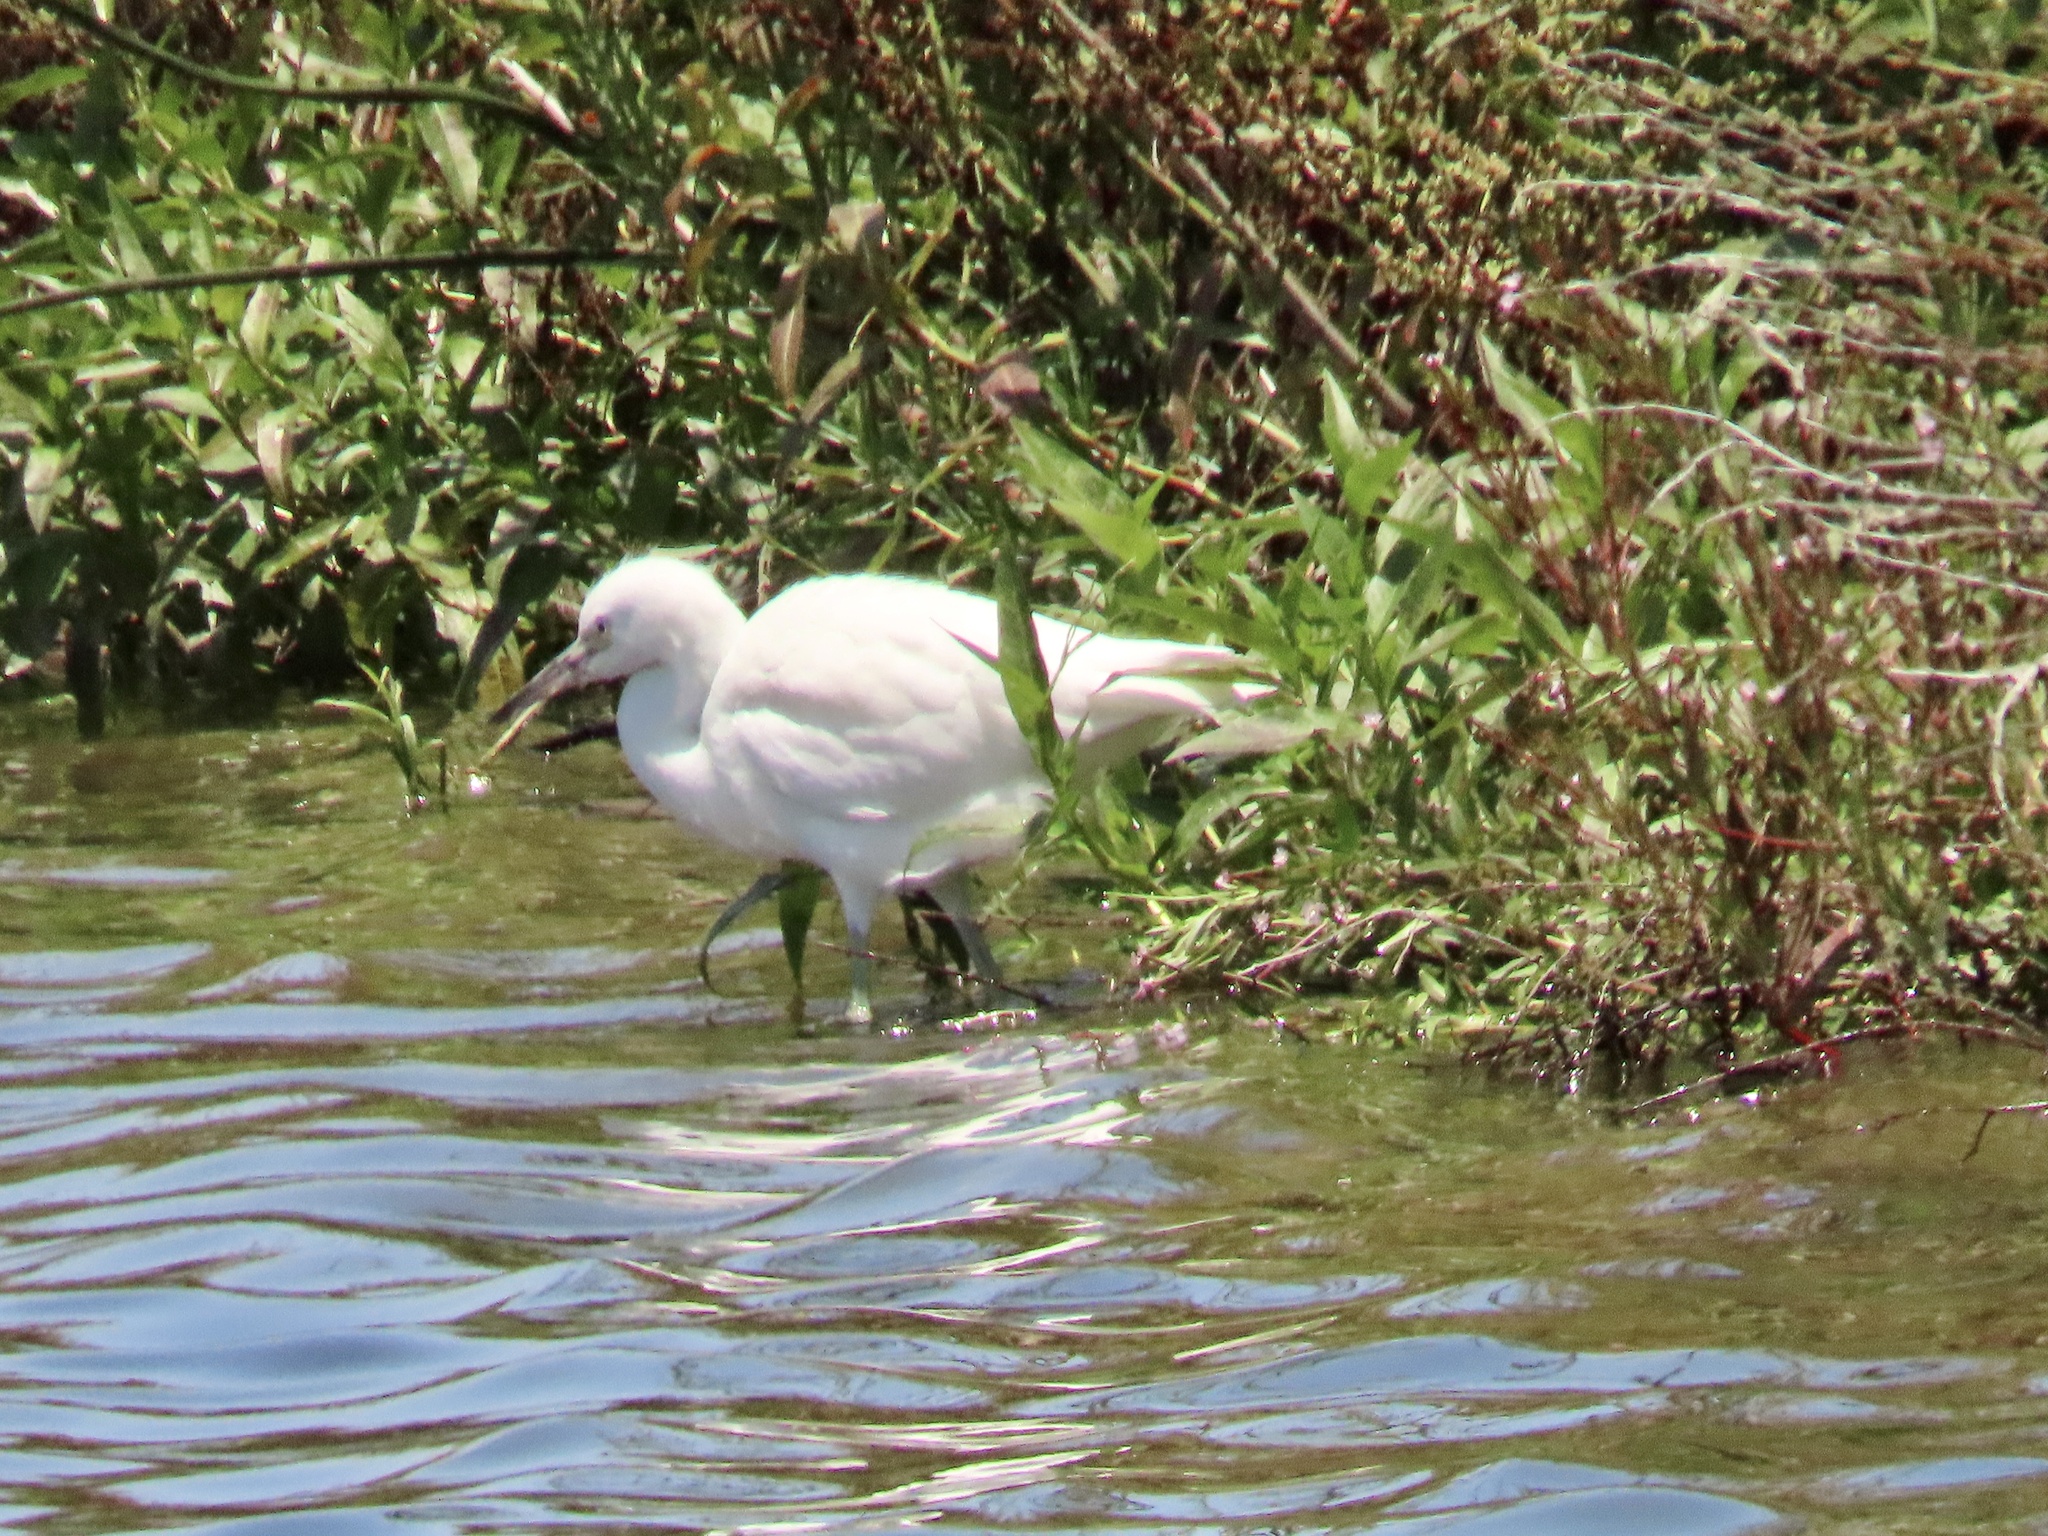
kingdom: Animalia
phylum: Chordata
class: Aves
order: Pelecaniformes
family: Ardeidae
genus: Egretta
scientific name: Egretta thula
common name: Snowy egret
